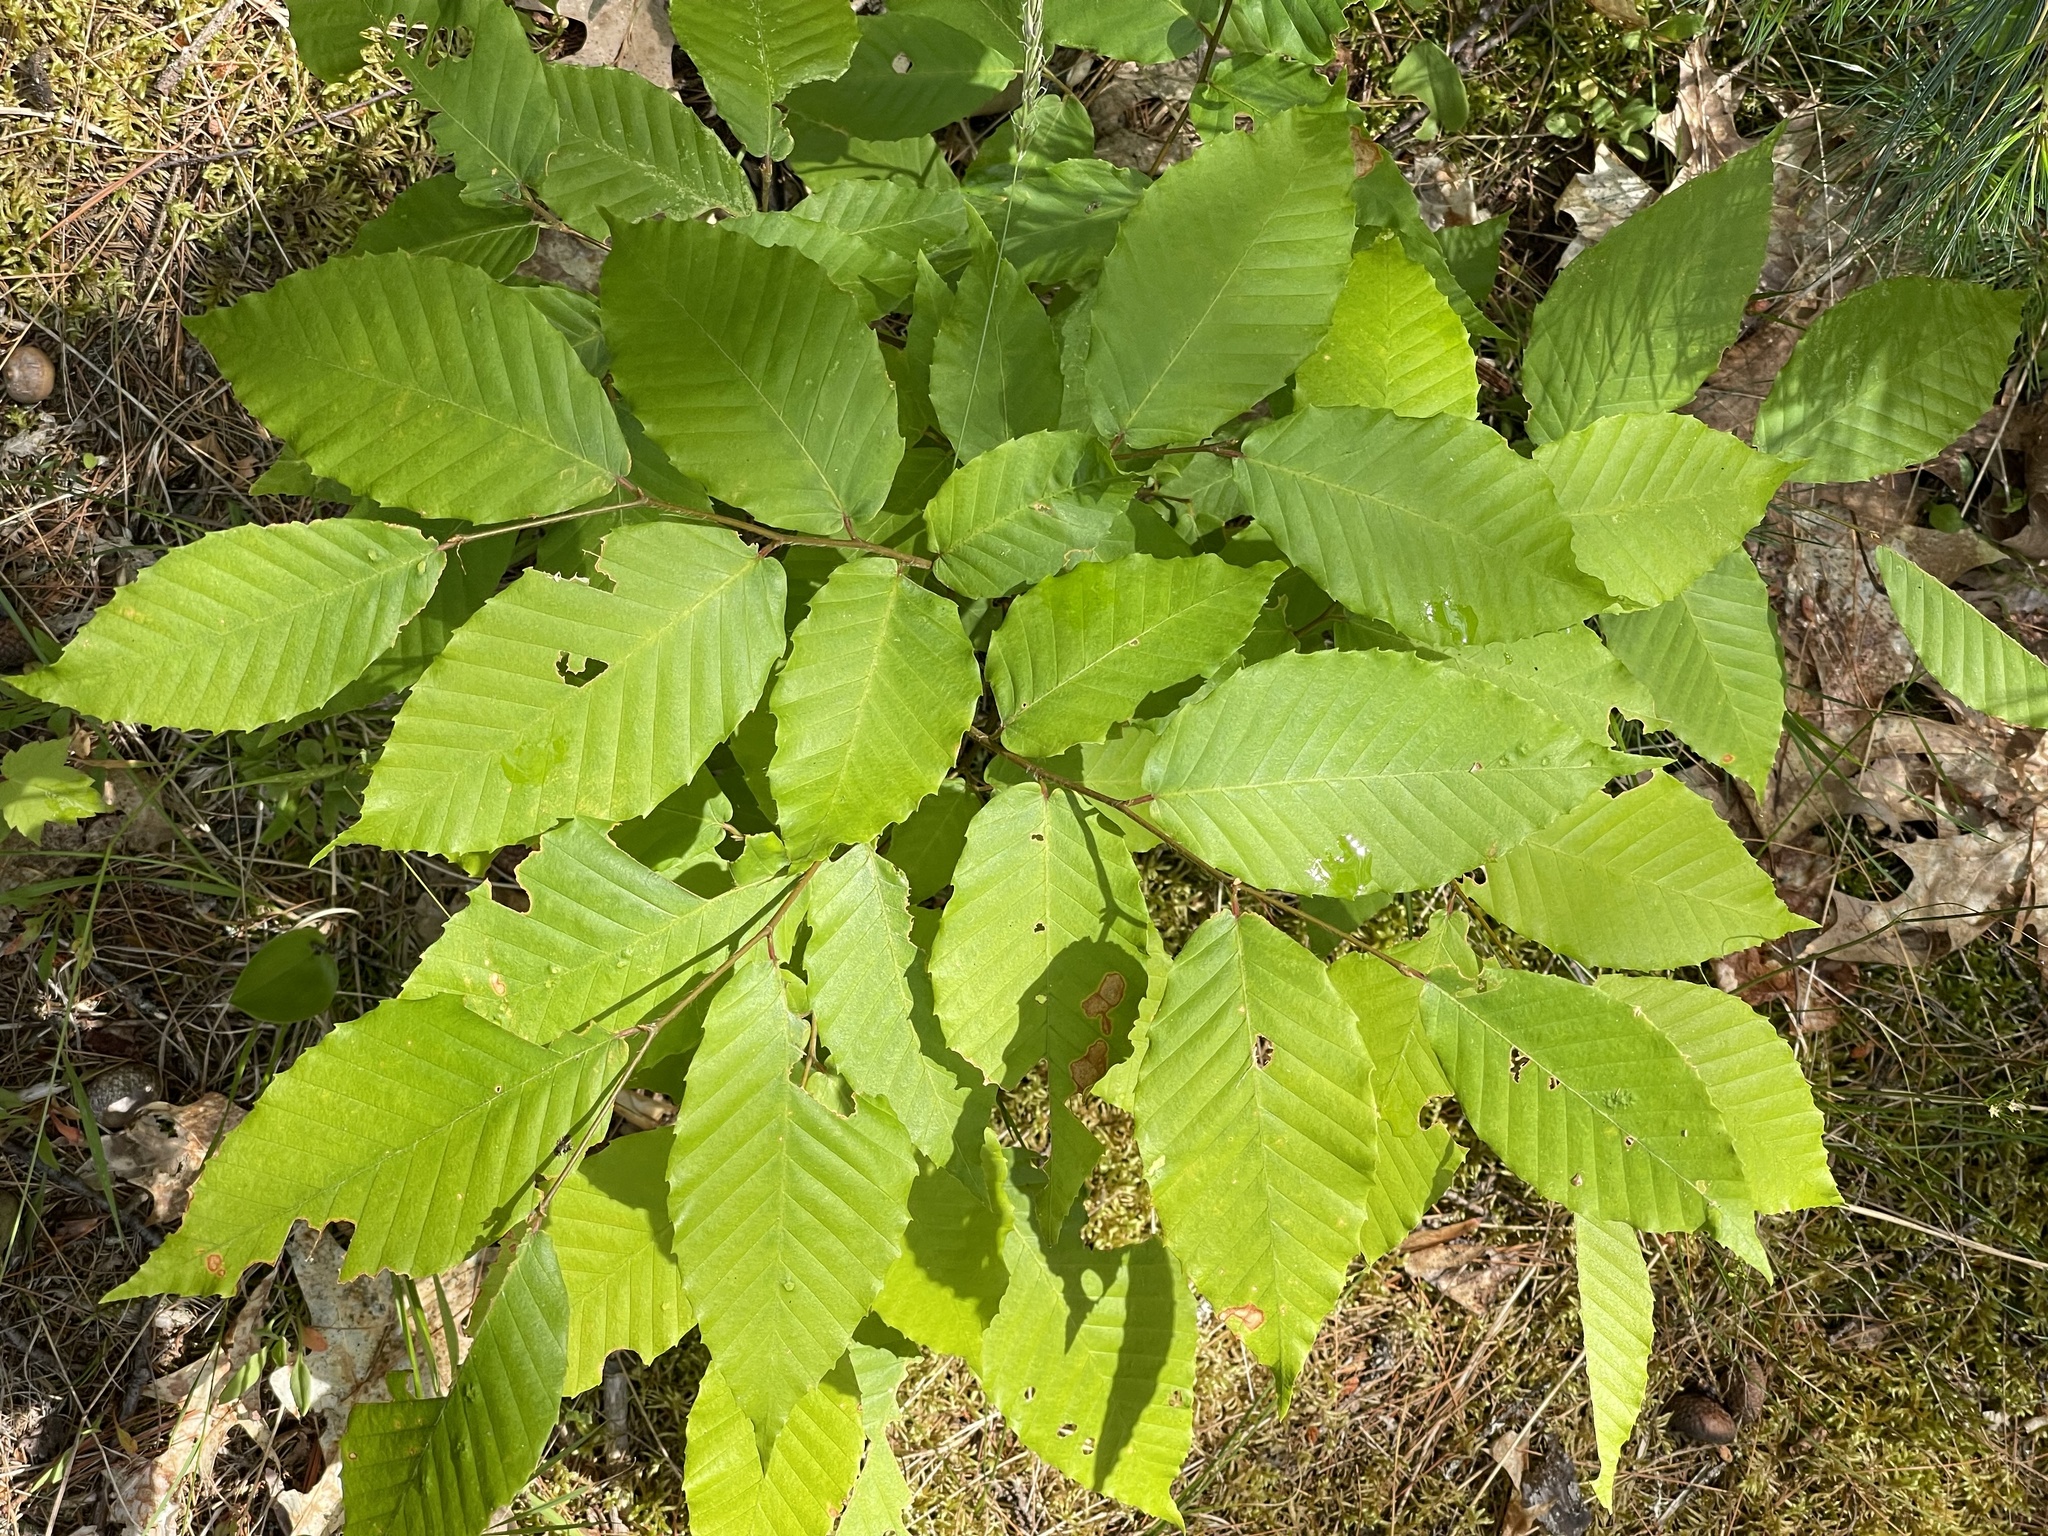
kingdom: Plantae
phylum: Tracheophyta
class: Magnoliopsida
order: Fagales
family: Fagaceae
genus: Fagus
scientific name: Fagus grandifolia
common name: American beech
